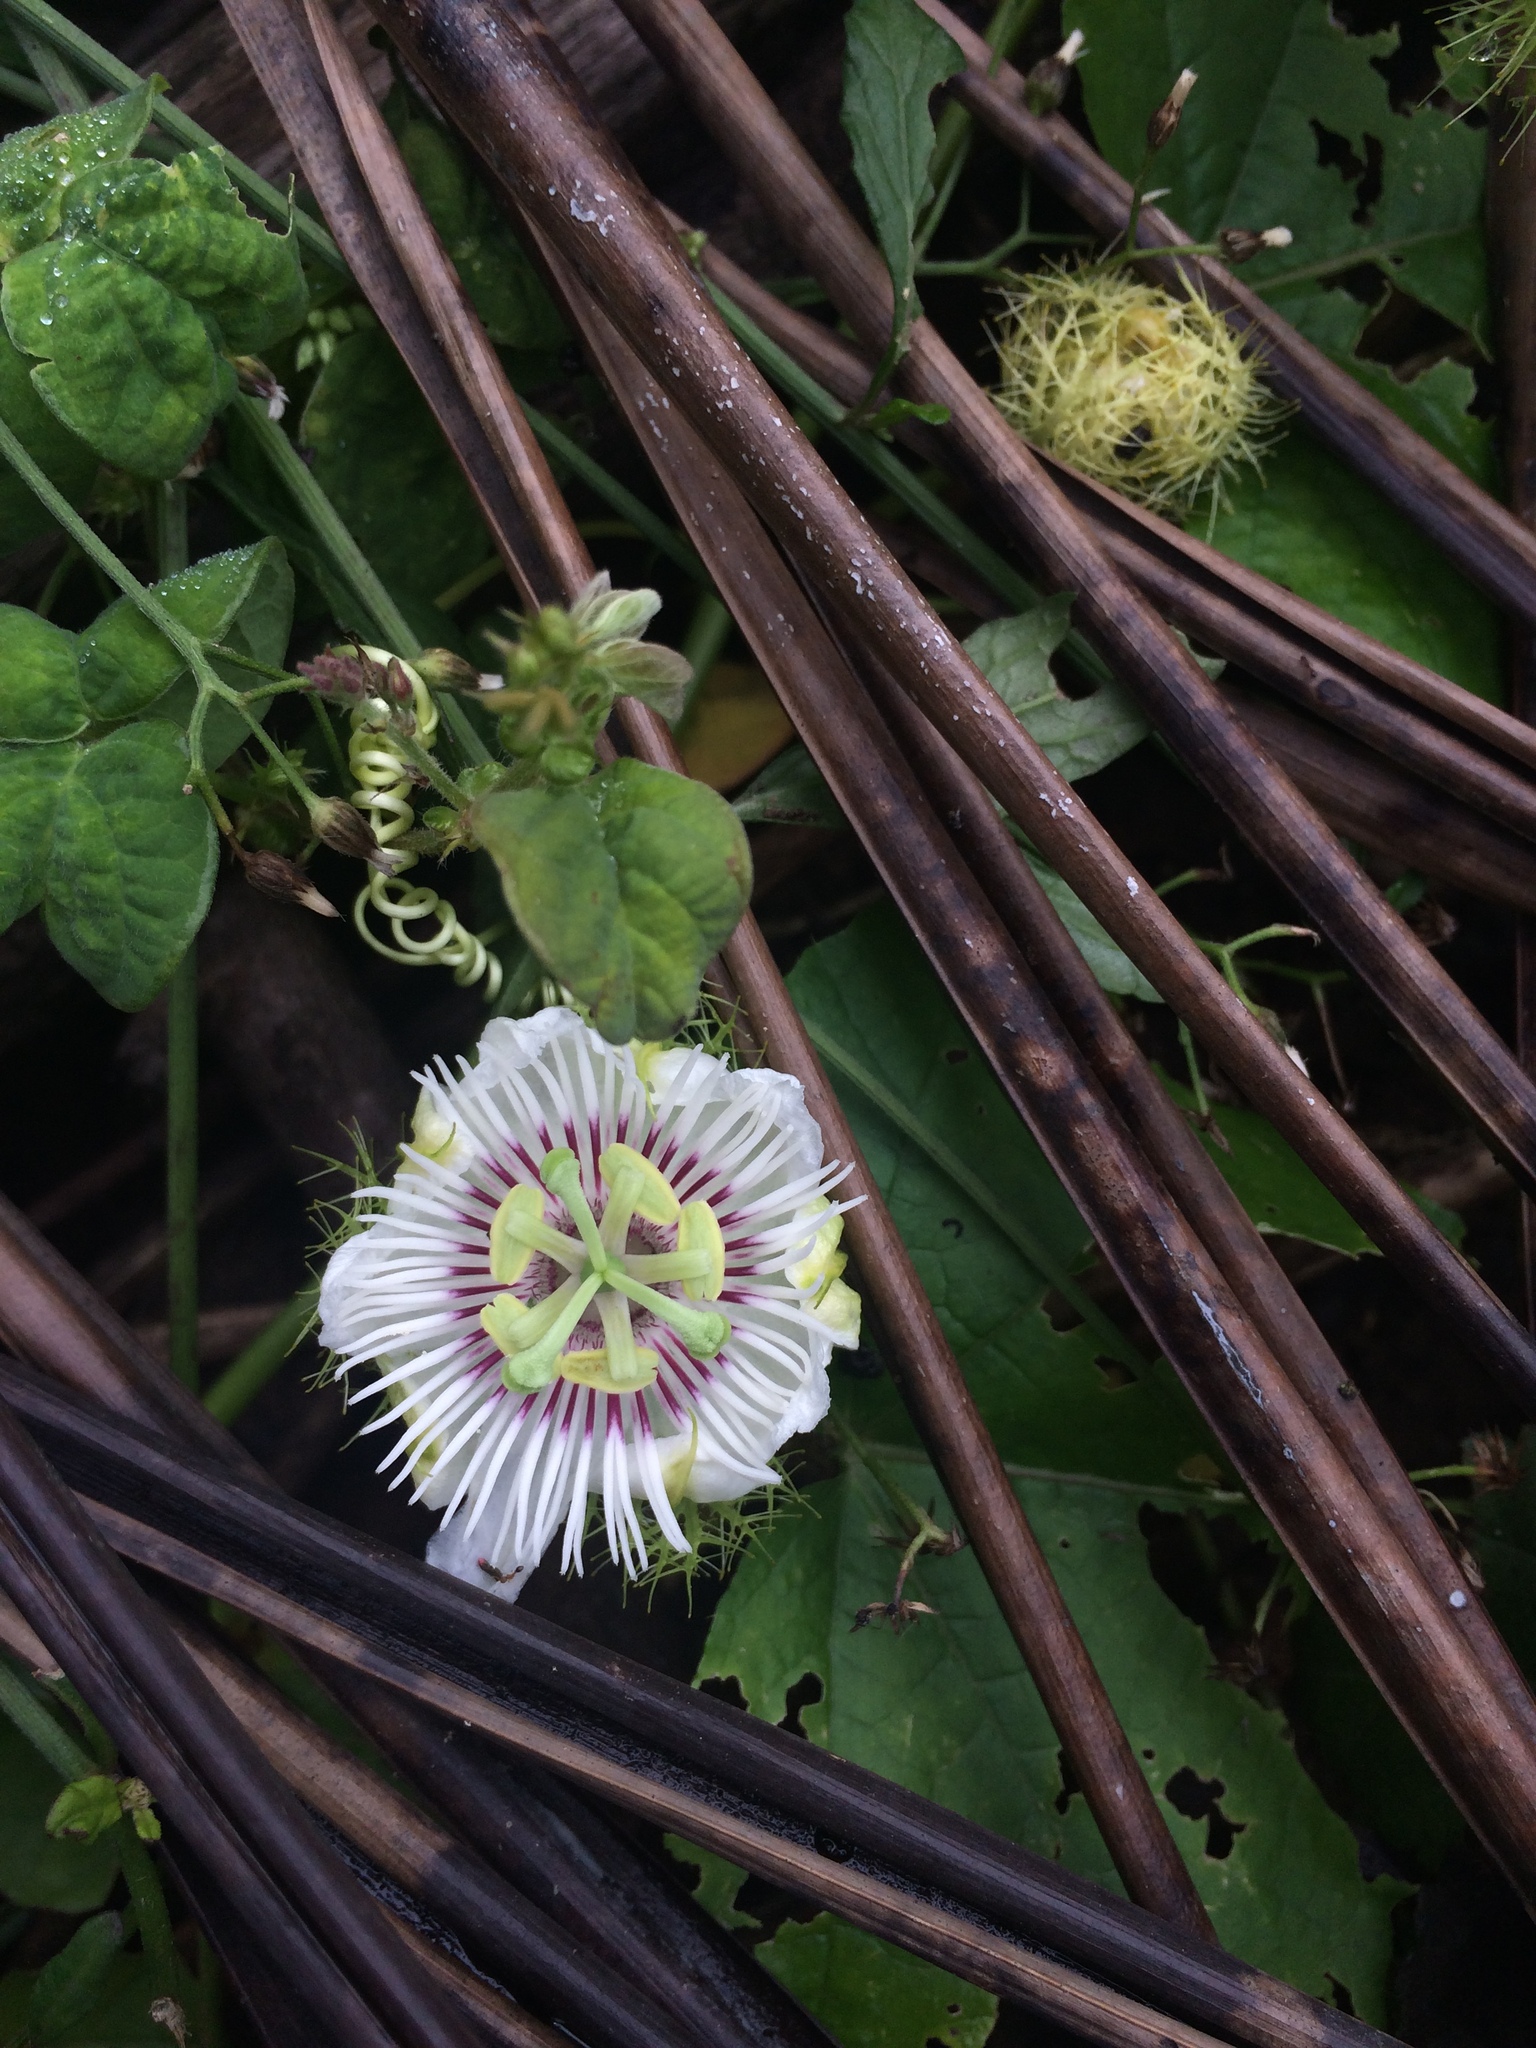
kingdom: Plantae
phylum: Tracheophyta
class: Magnoliopsida
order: Malpighiales
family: Passifloraceae
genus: Passiflora
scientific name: Passiflora foetida
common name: Fetid passionflower
